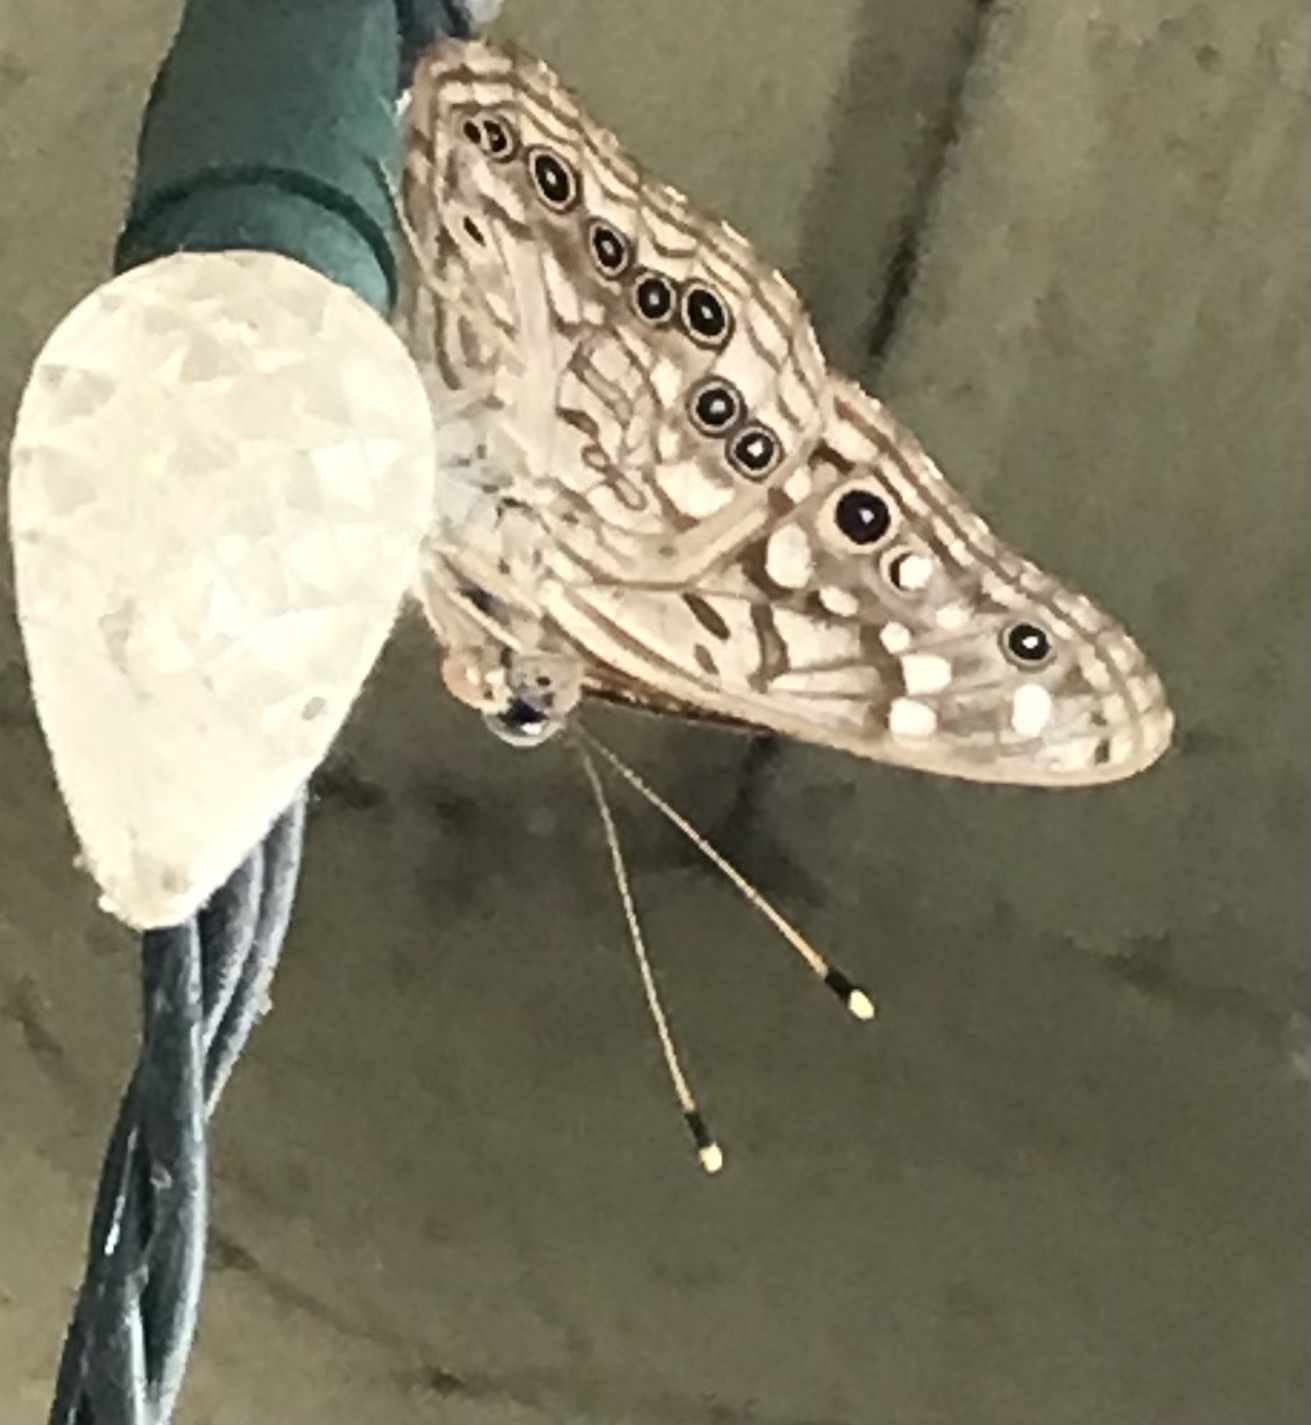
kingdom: Animalia
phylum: Arthropoda
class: Insecta
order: Lepidoptera
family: Nymphalidae
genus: Asterocampa
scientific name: Asterocampa celtis
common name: Hackberry emperor
